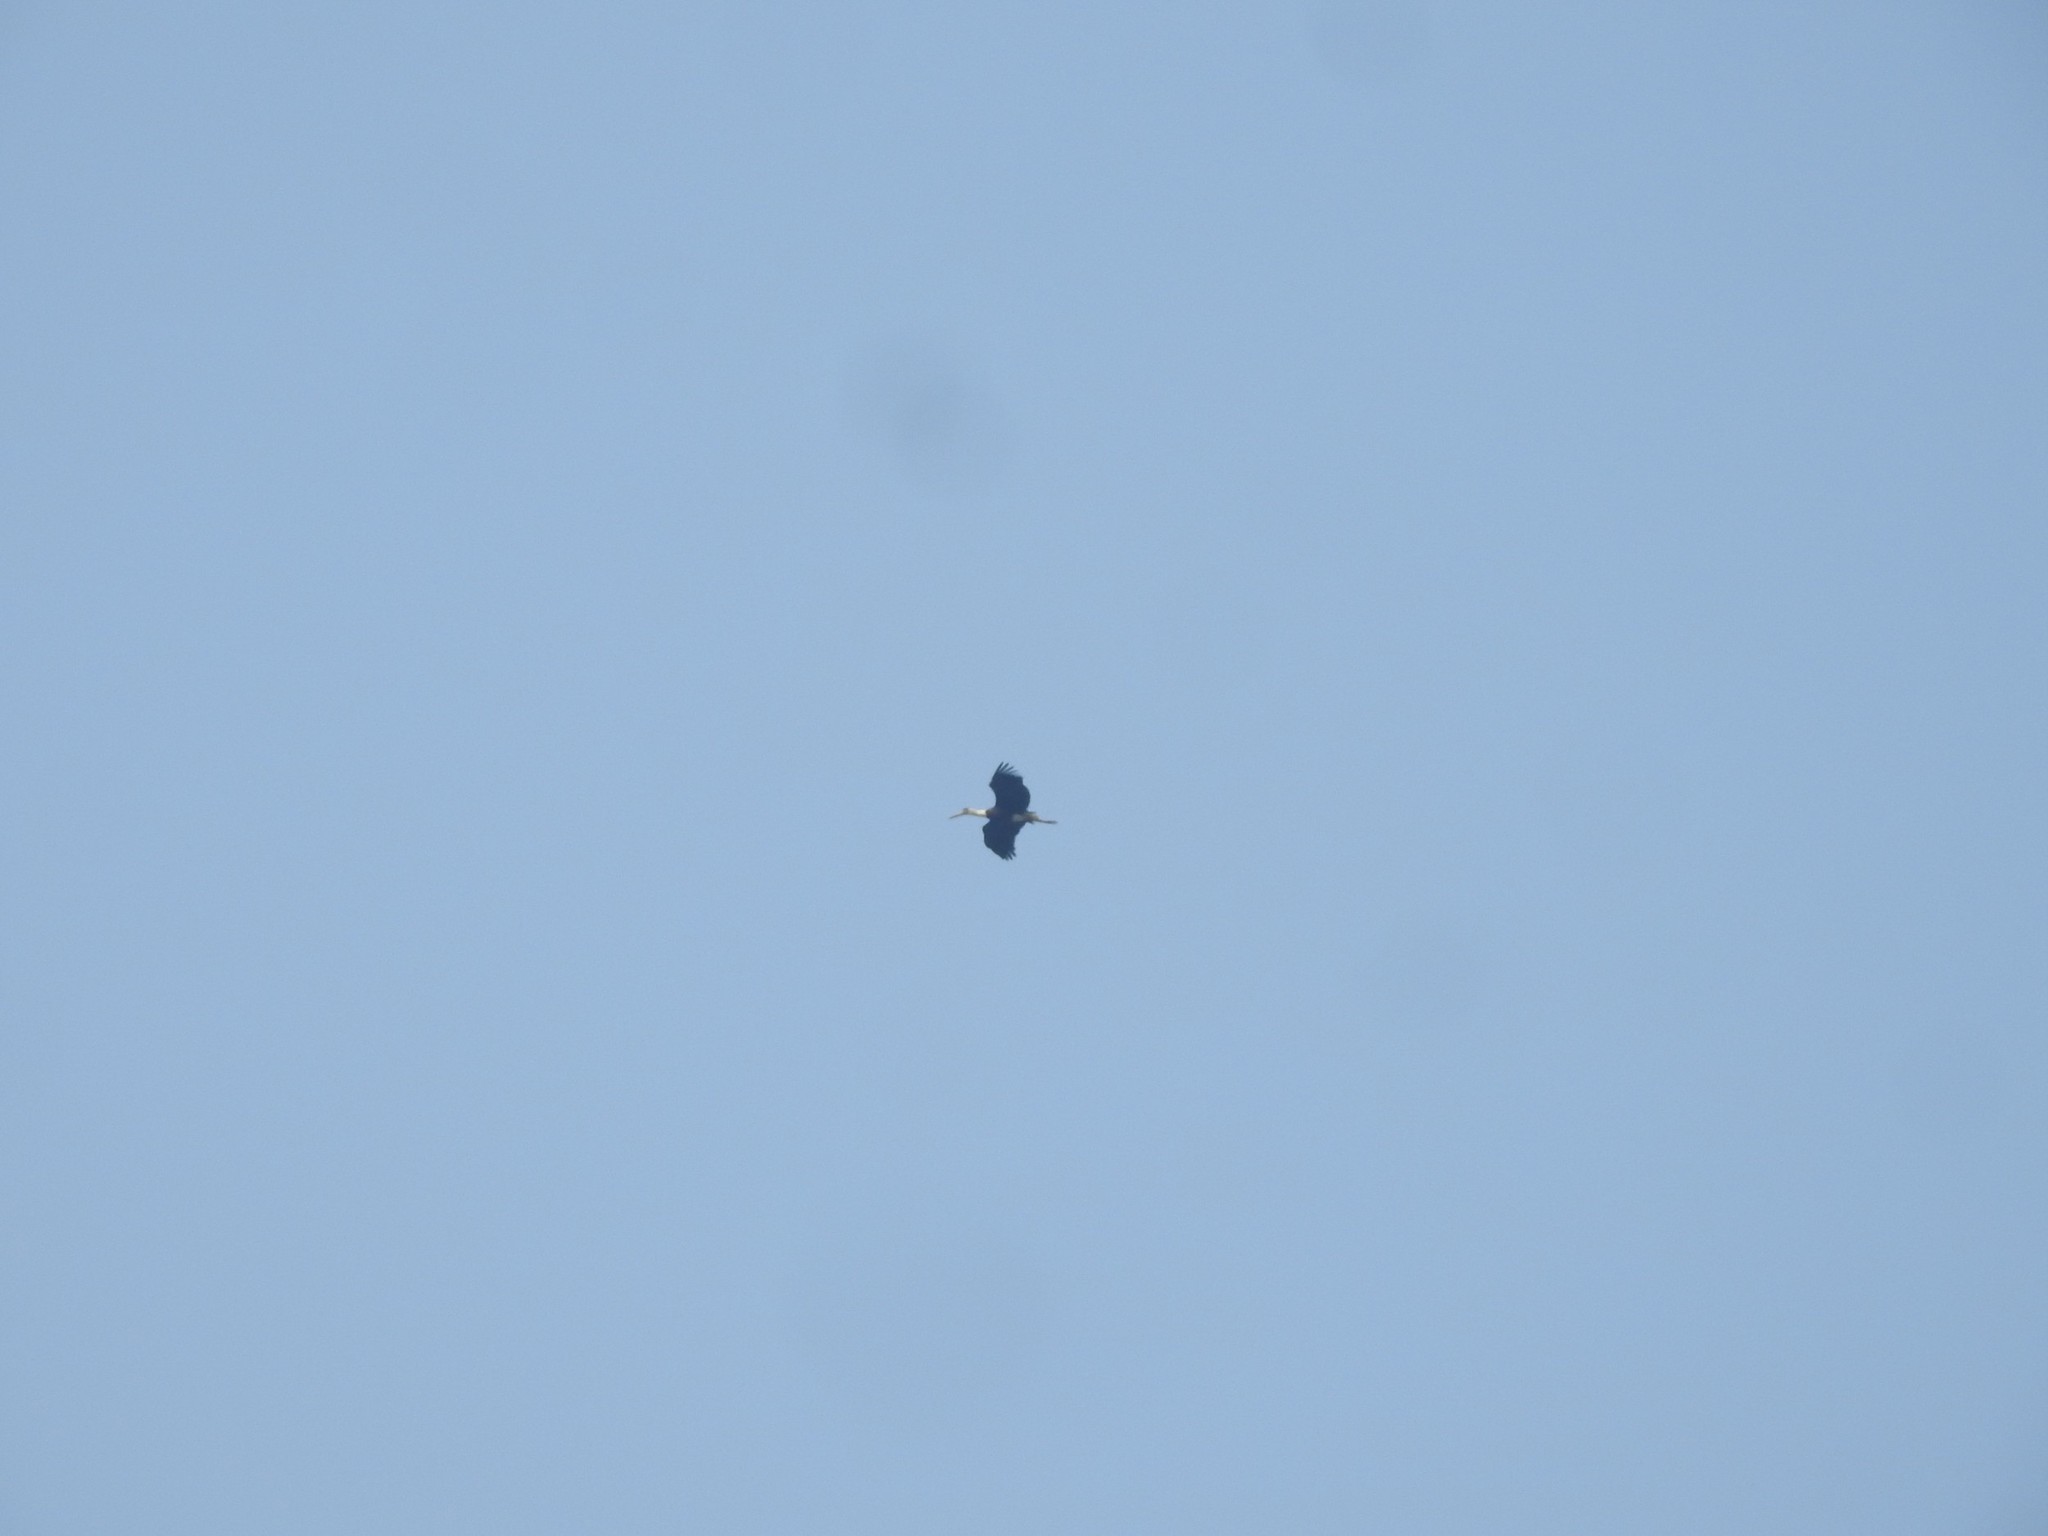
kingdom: Animalia
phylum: Chordata
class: Aves
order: Ciconiiformes
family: Ciconiidae
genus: Ciconia
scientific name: Ciconia episcopus
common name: Woolly-necked stork
